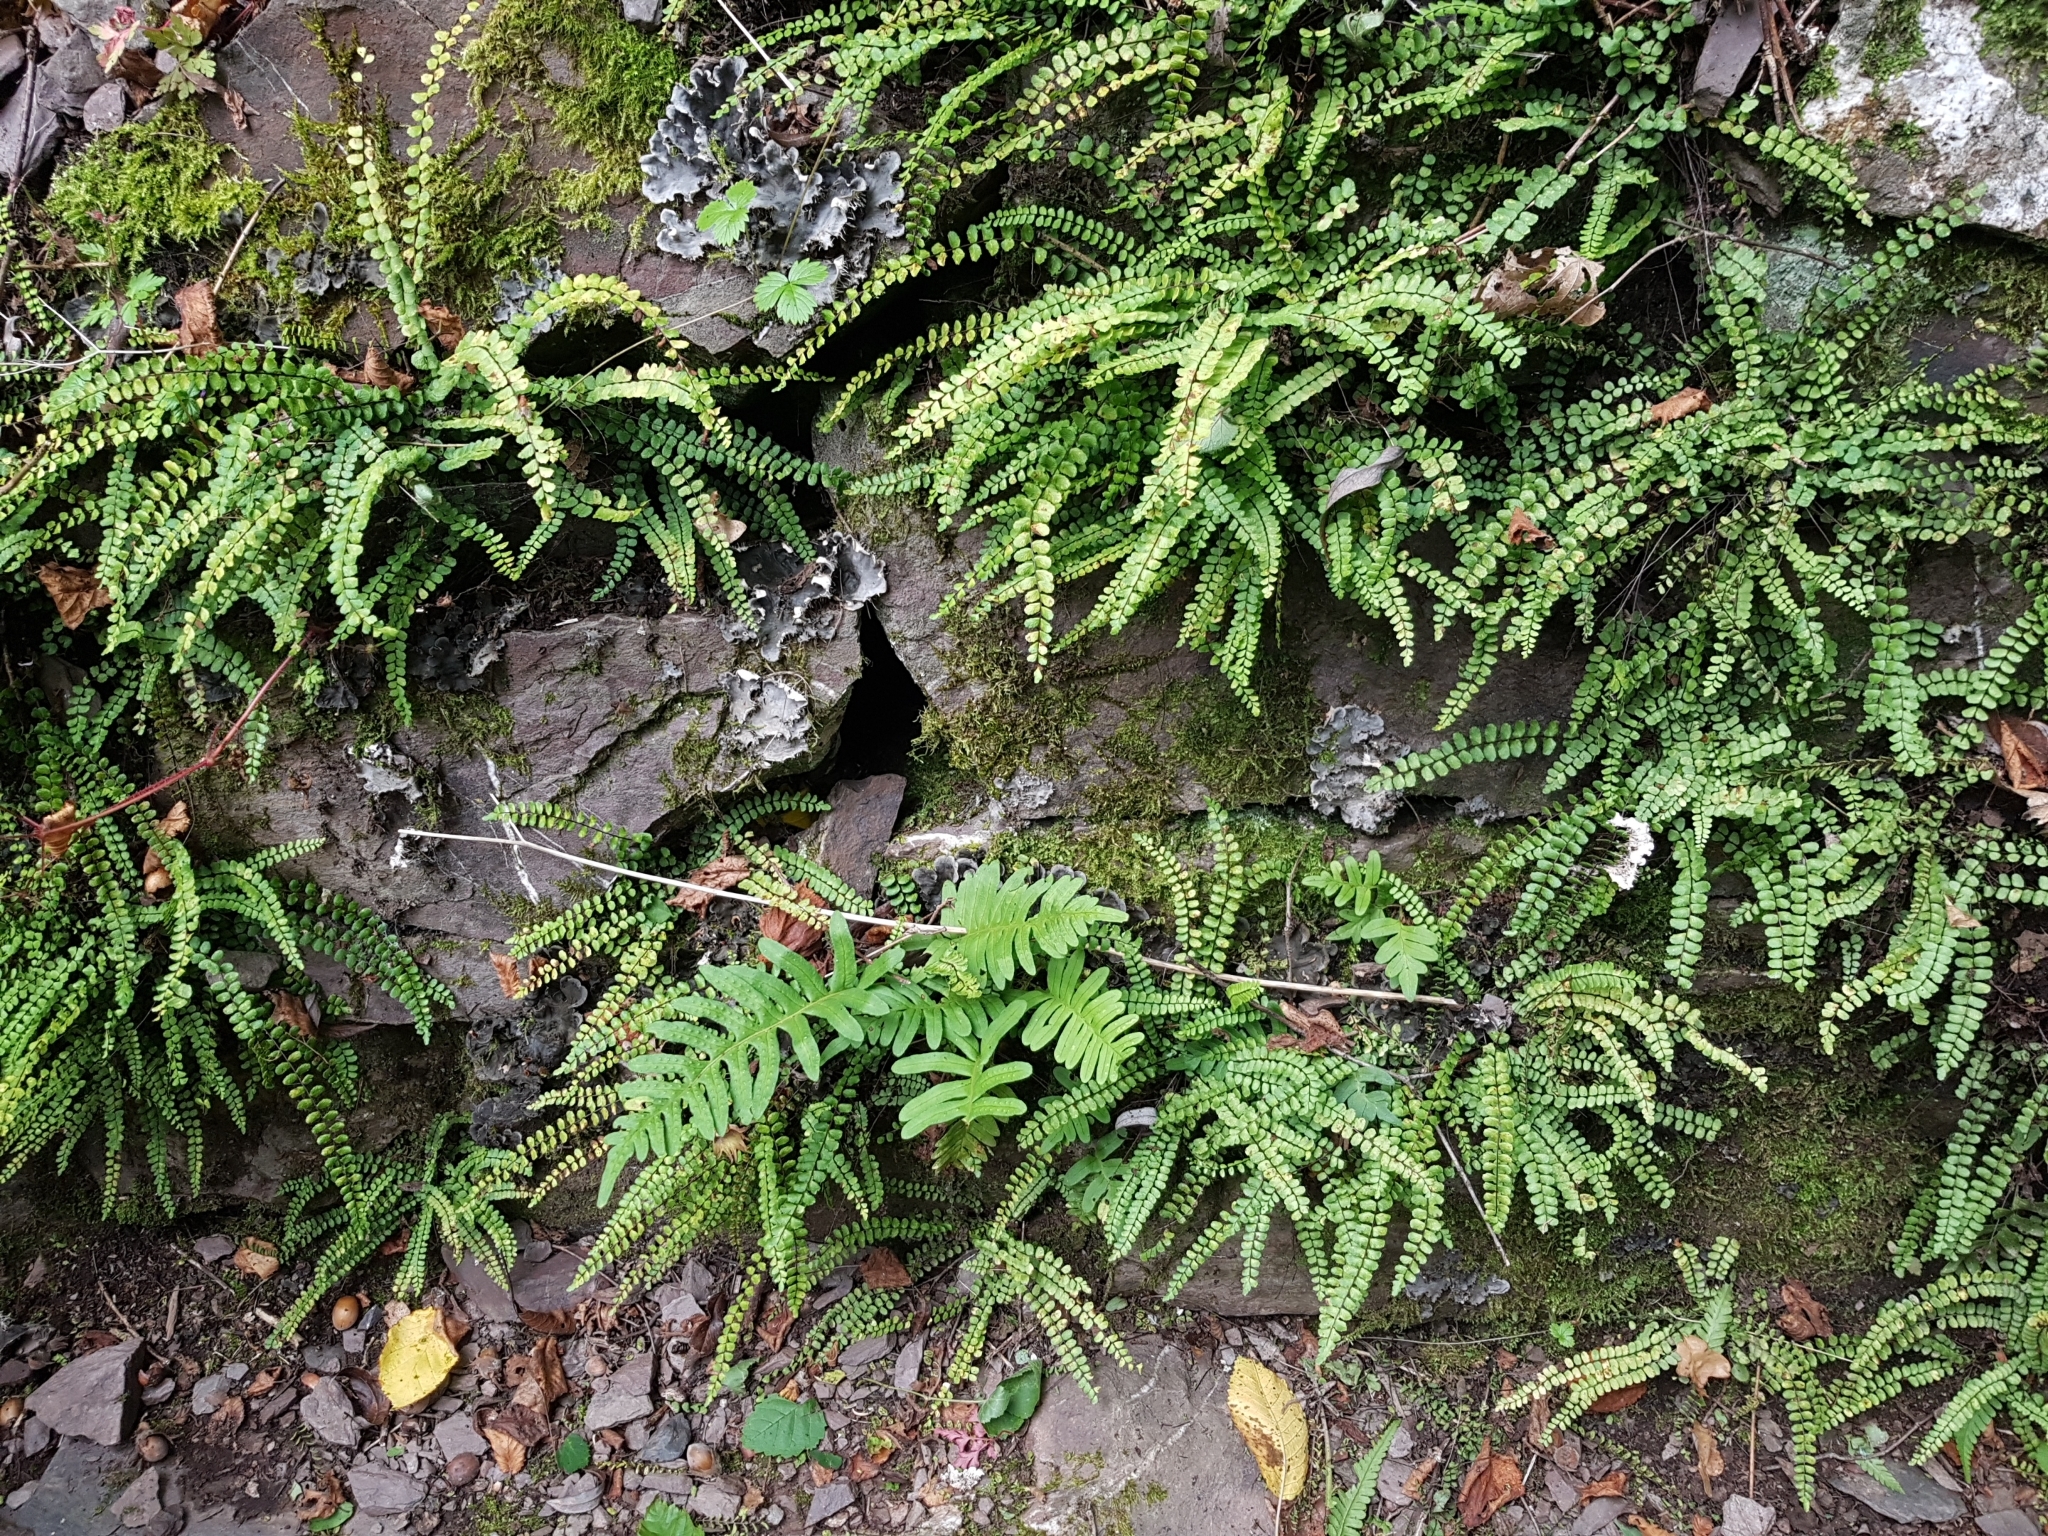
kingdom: Plantae
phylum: Tracheophyta
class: Polypodiopsida
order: Polypodiales
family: Aspleniaceae
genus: Asplenium
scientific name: Asplenium trichomanes
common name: Maidenhair spleenwort
